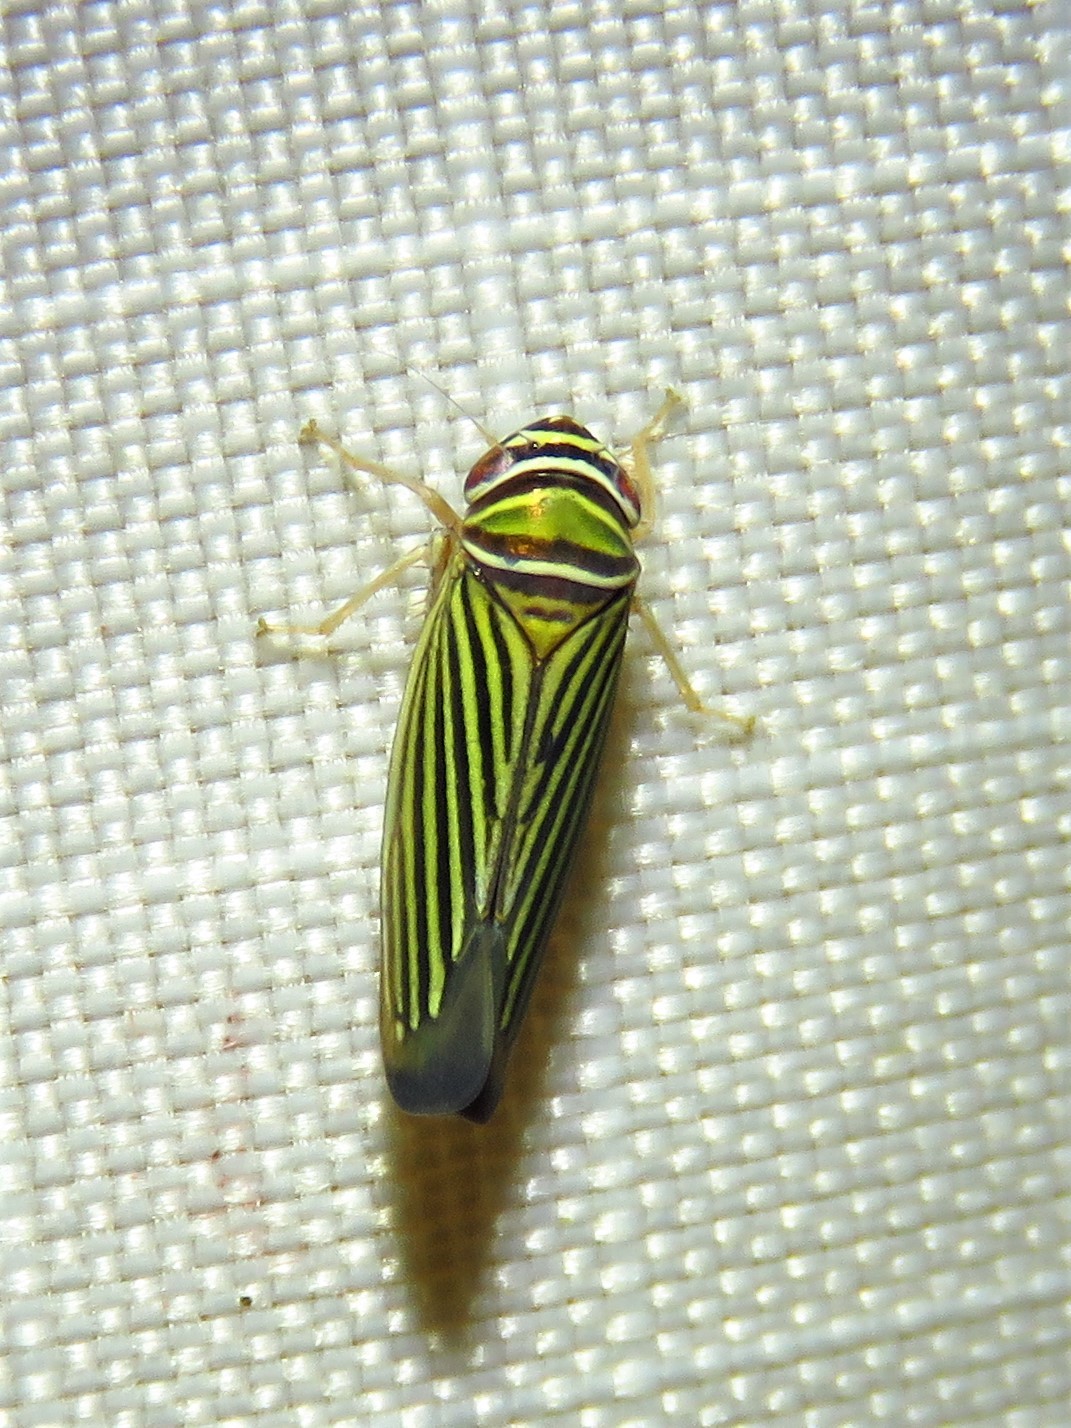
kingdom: Animalia
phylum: Arthropoda
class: Insecta
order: Hemiptera
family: Cicadellidae
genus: Tylozygus
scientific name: Tylozygus bifidus
